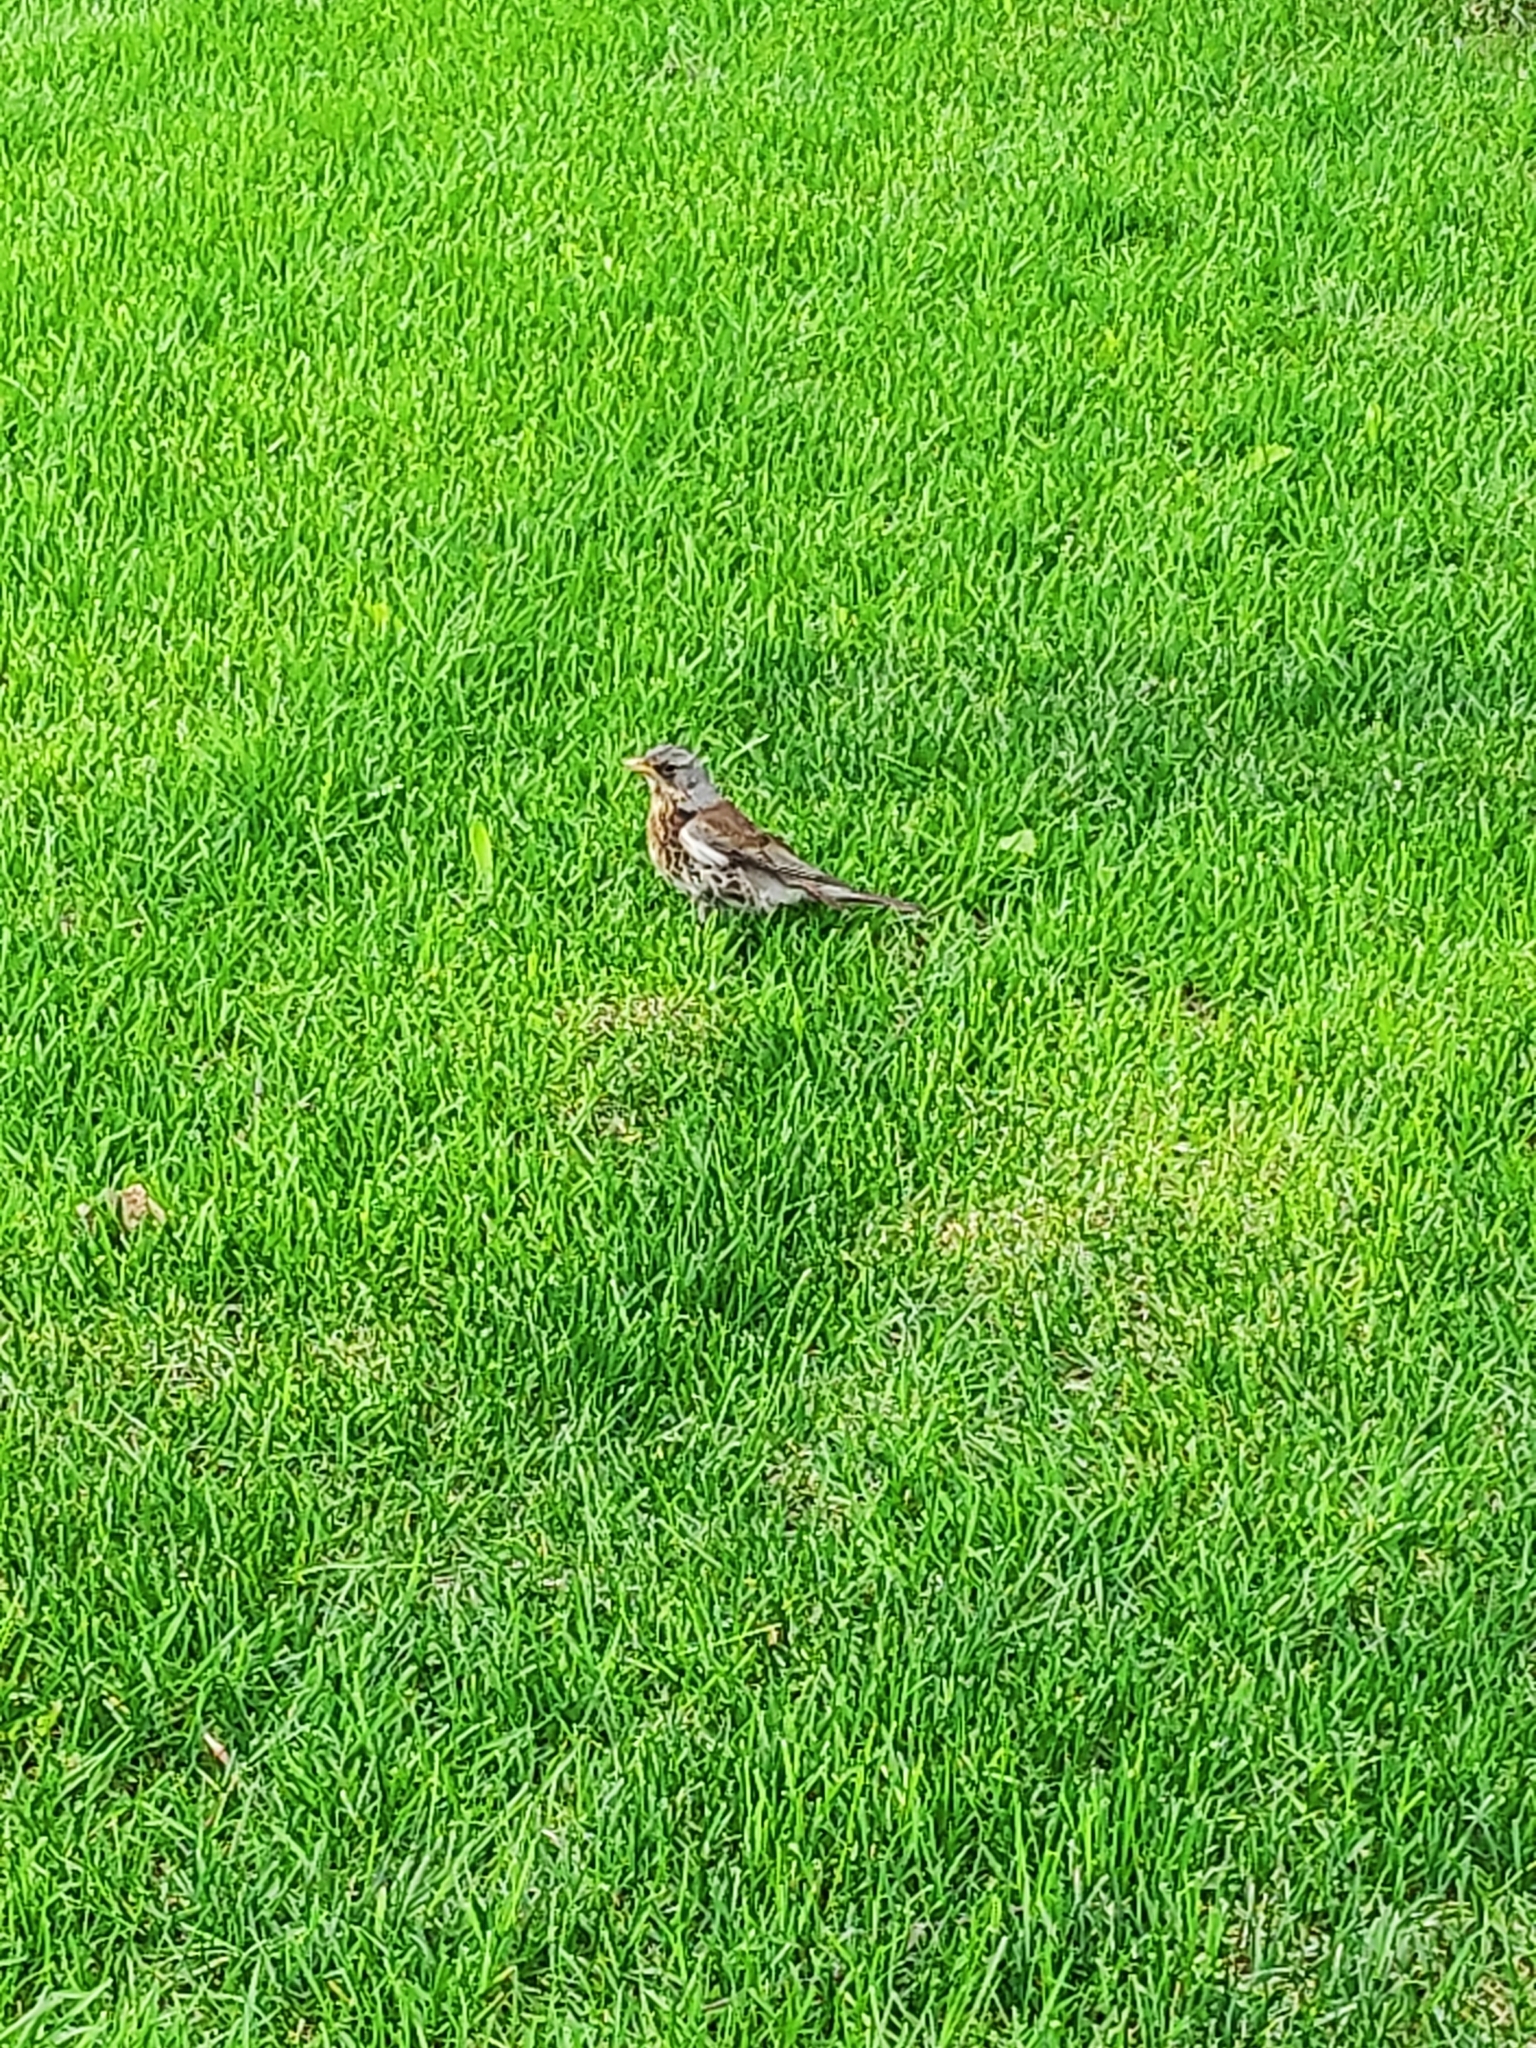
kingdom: Animalia
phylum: Chordata
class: Aves
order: Passeriformes
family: Turdidae
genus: Turdus
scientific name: Turdus pilaris
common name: Fieldfare
